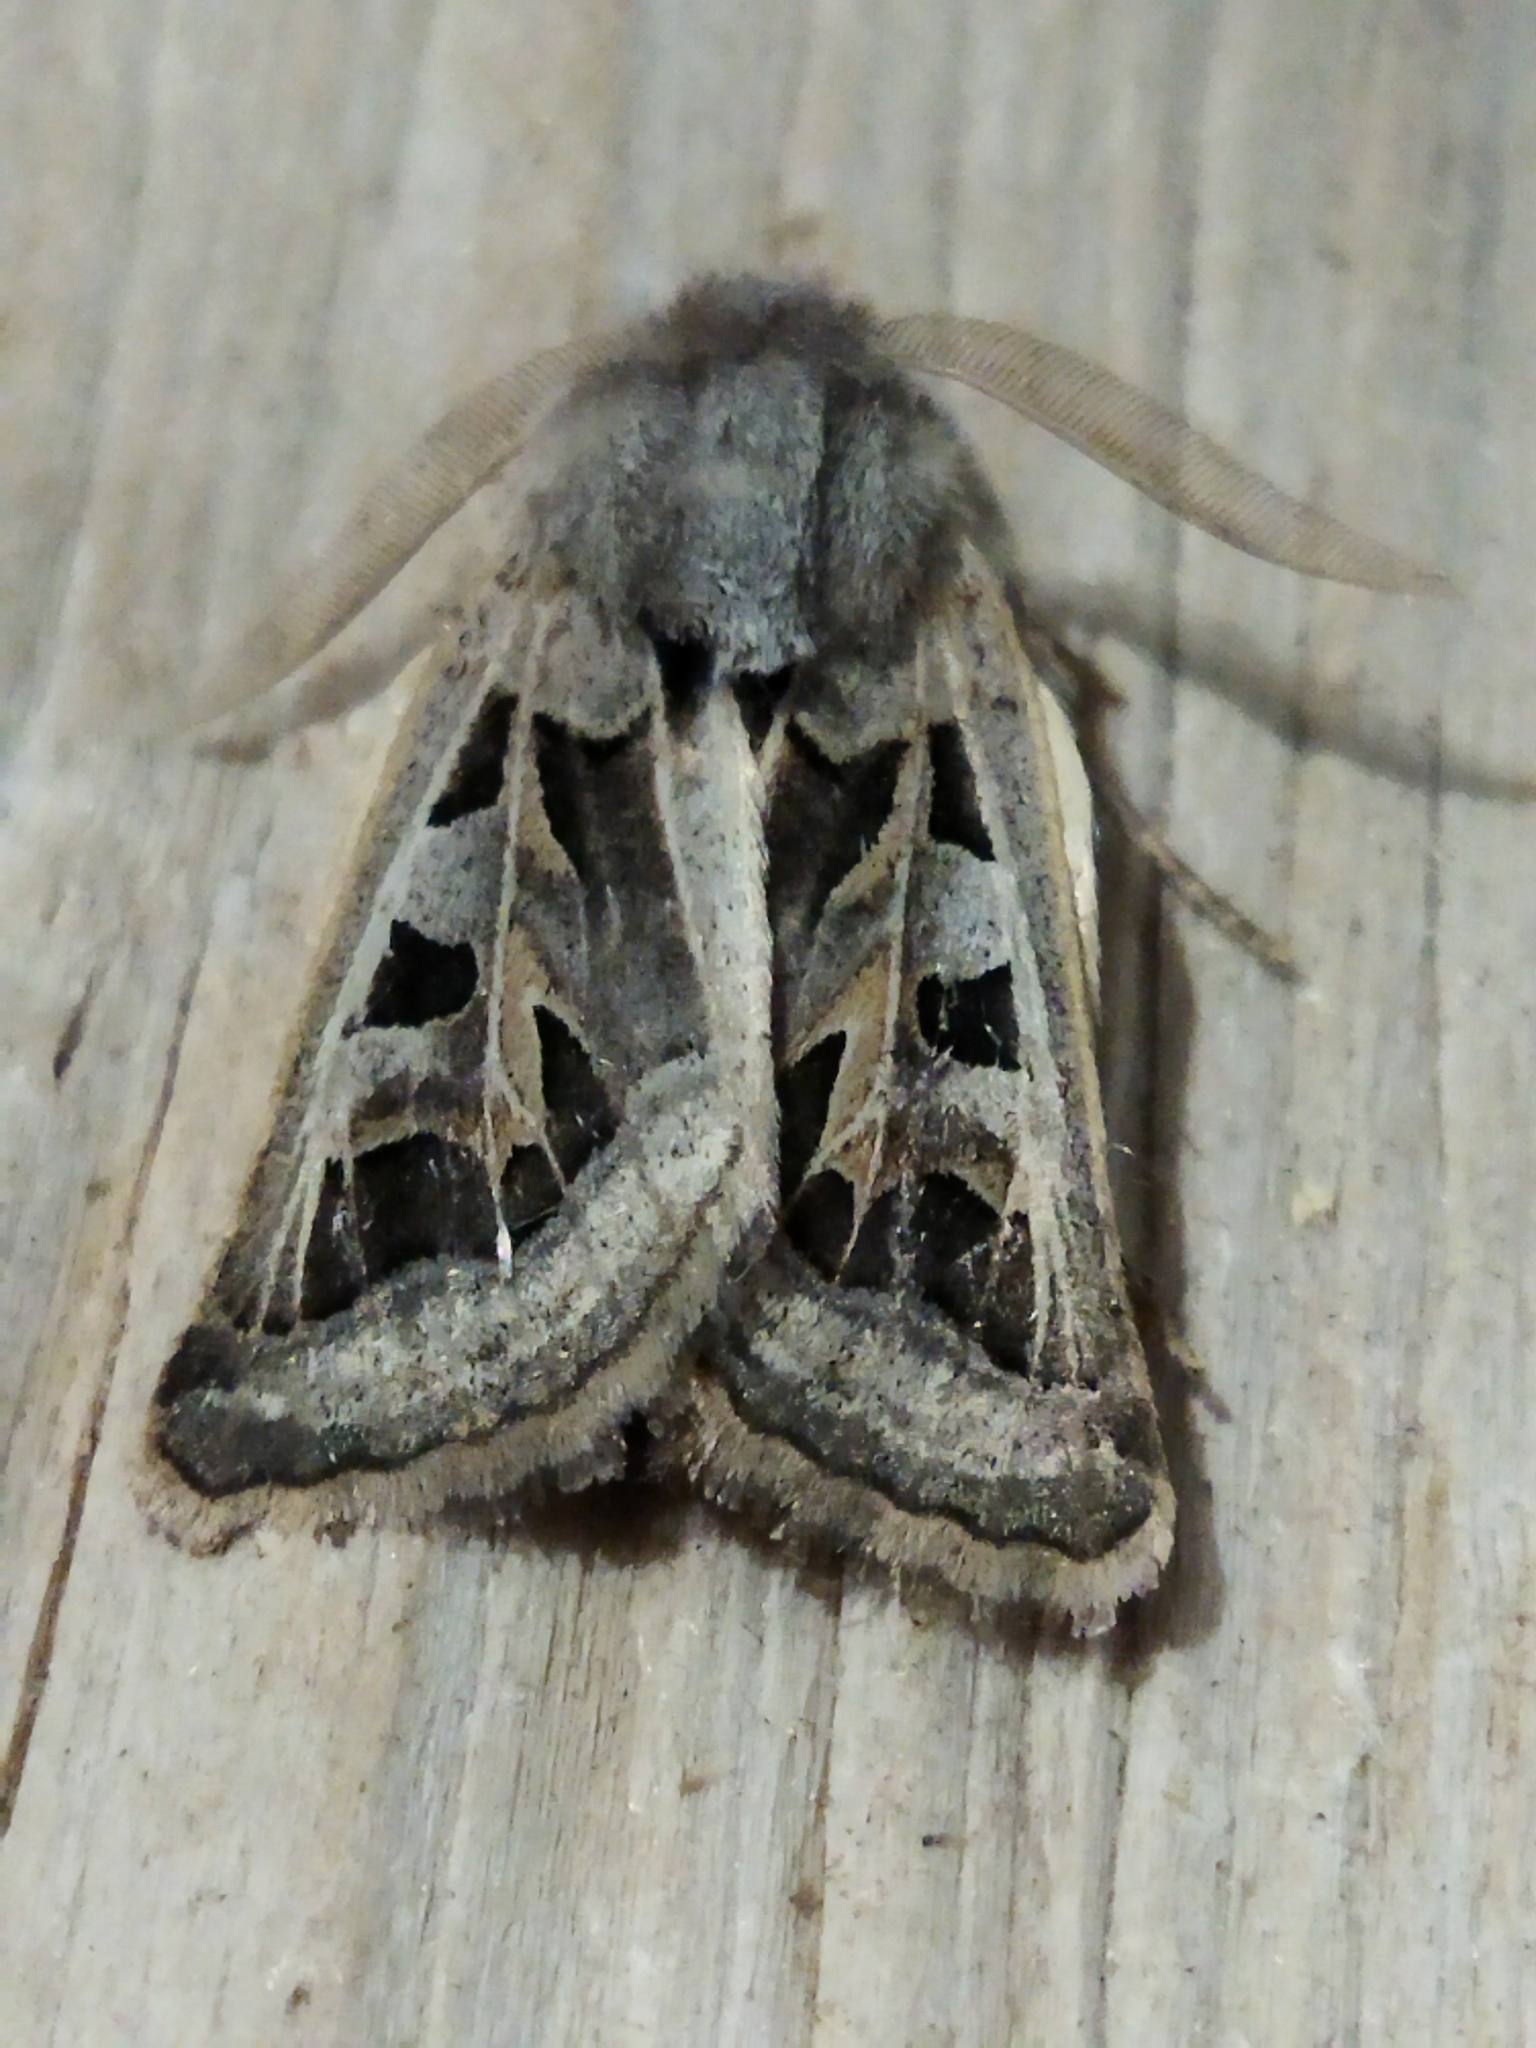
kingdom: Animalia
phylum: Arthropoda
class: Insecta
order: Lepidoptera
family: Noctuidae
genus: Episema
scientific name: Episema glaucina
